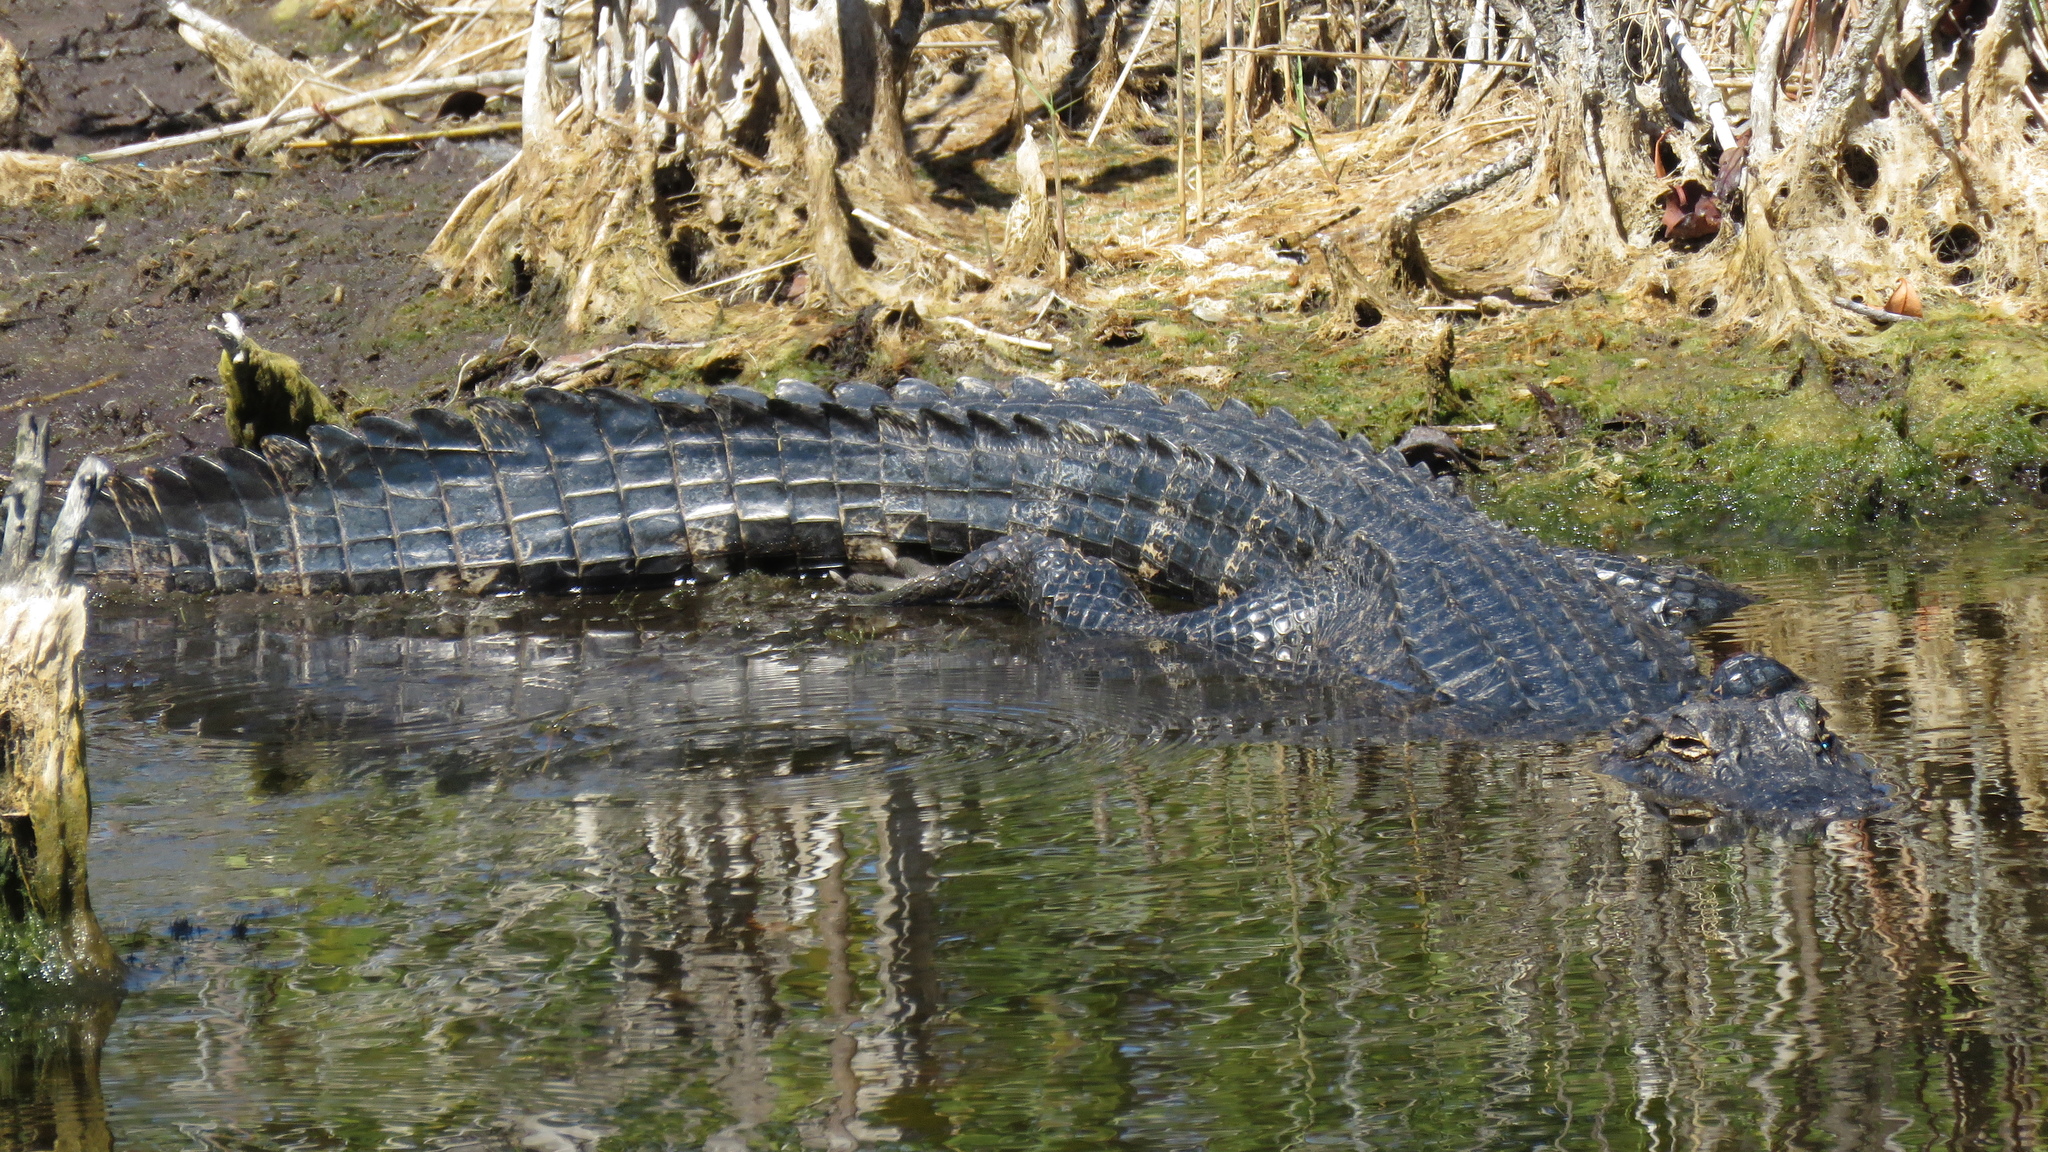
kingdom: Animalia
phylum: Chordata
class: Crocodylia
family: Alligatoridae
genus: Alligator
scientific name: Alligator mississippiensis
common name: American alligator
